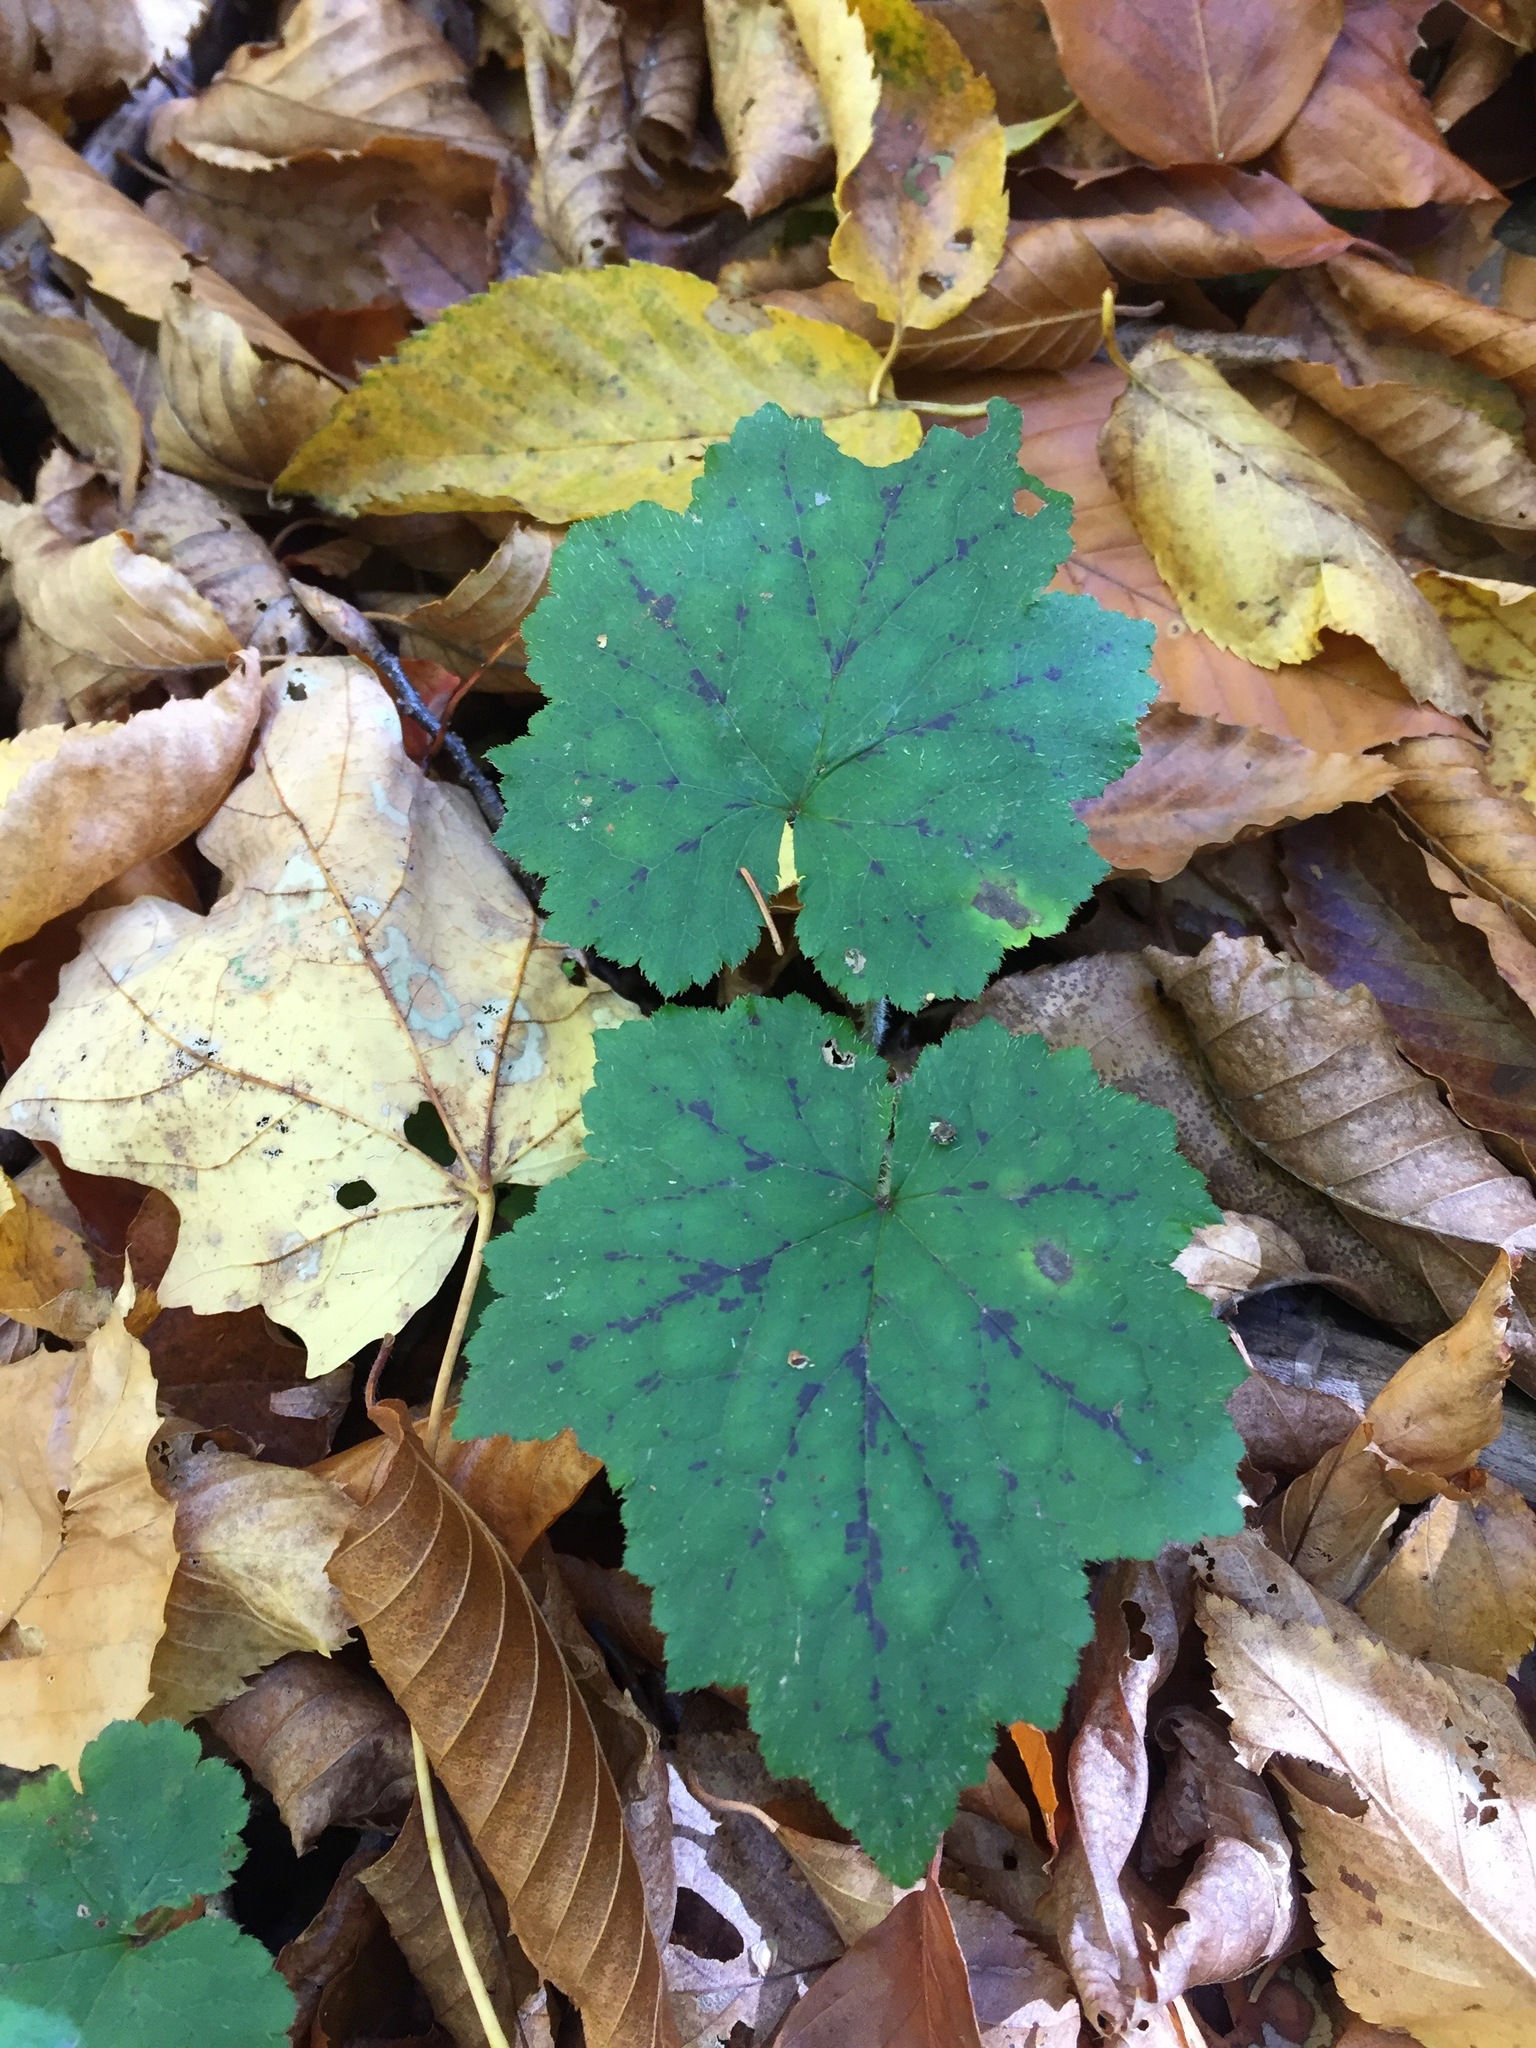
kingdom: Plantae
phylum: Tracheophyta
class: Magnoliopsida
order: Saxifragales
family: Saxifragaceae
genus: Tiarella
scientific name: Tiarella stolonifera
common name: Stoloniferous foamflower
